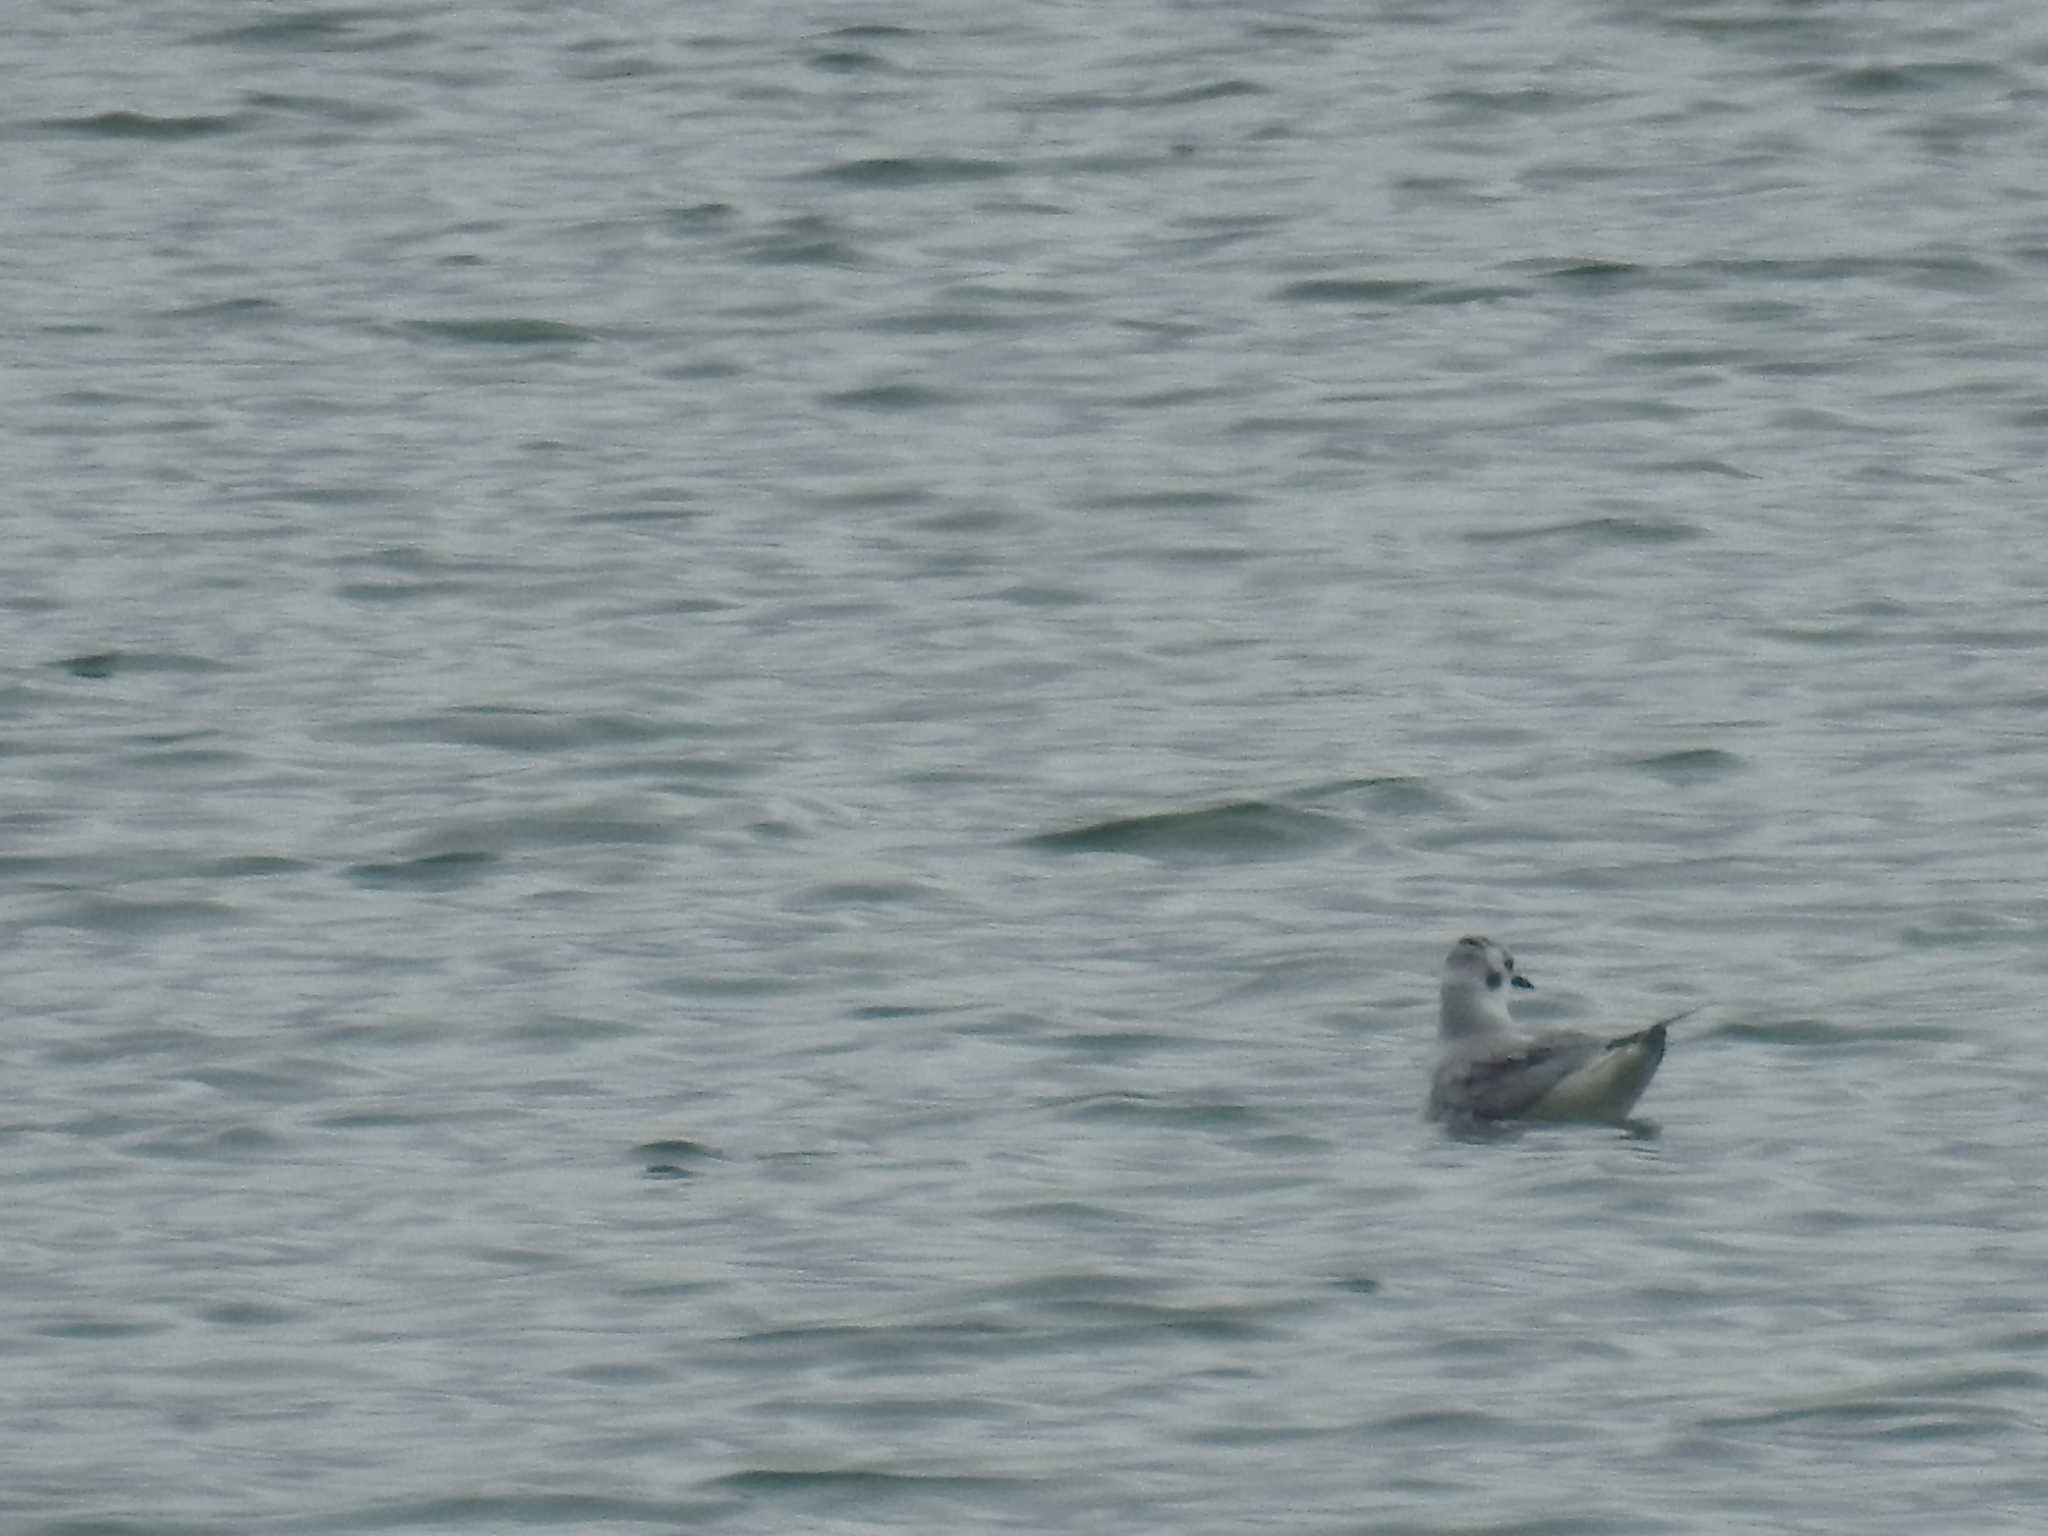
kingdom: Animalia
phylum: Chordata
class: Aves
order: Charadriiformes
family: Laridae
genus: Chroicocephalus
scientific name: Chroicocephalus philadelphia
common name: Bonaparte's gull
